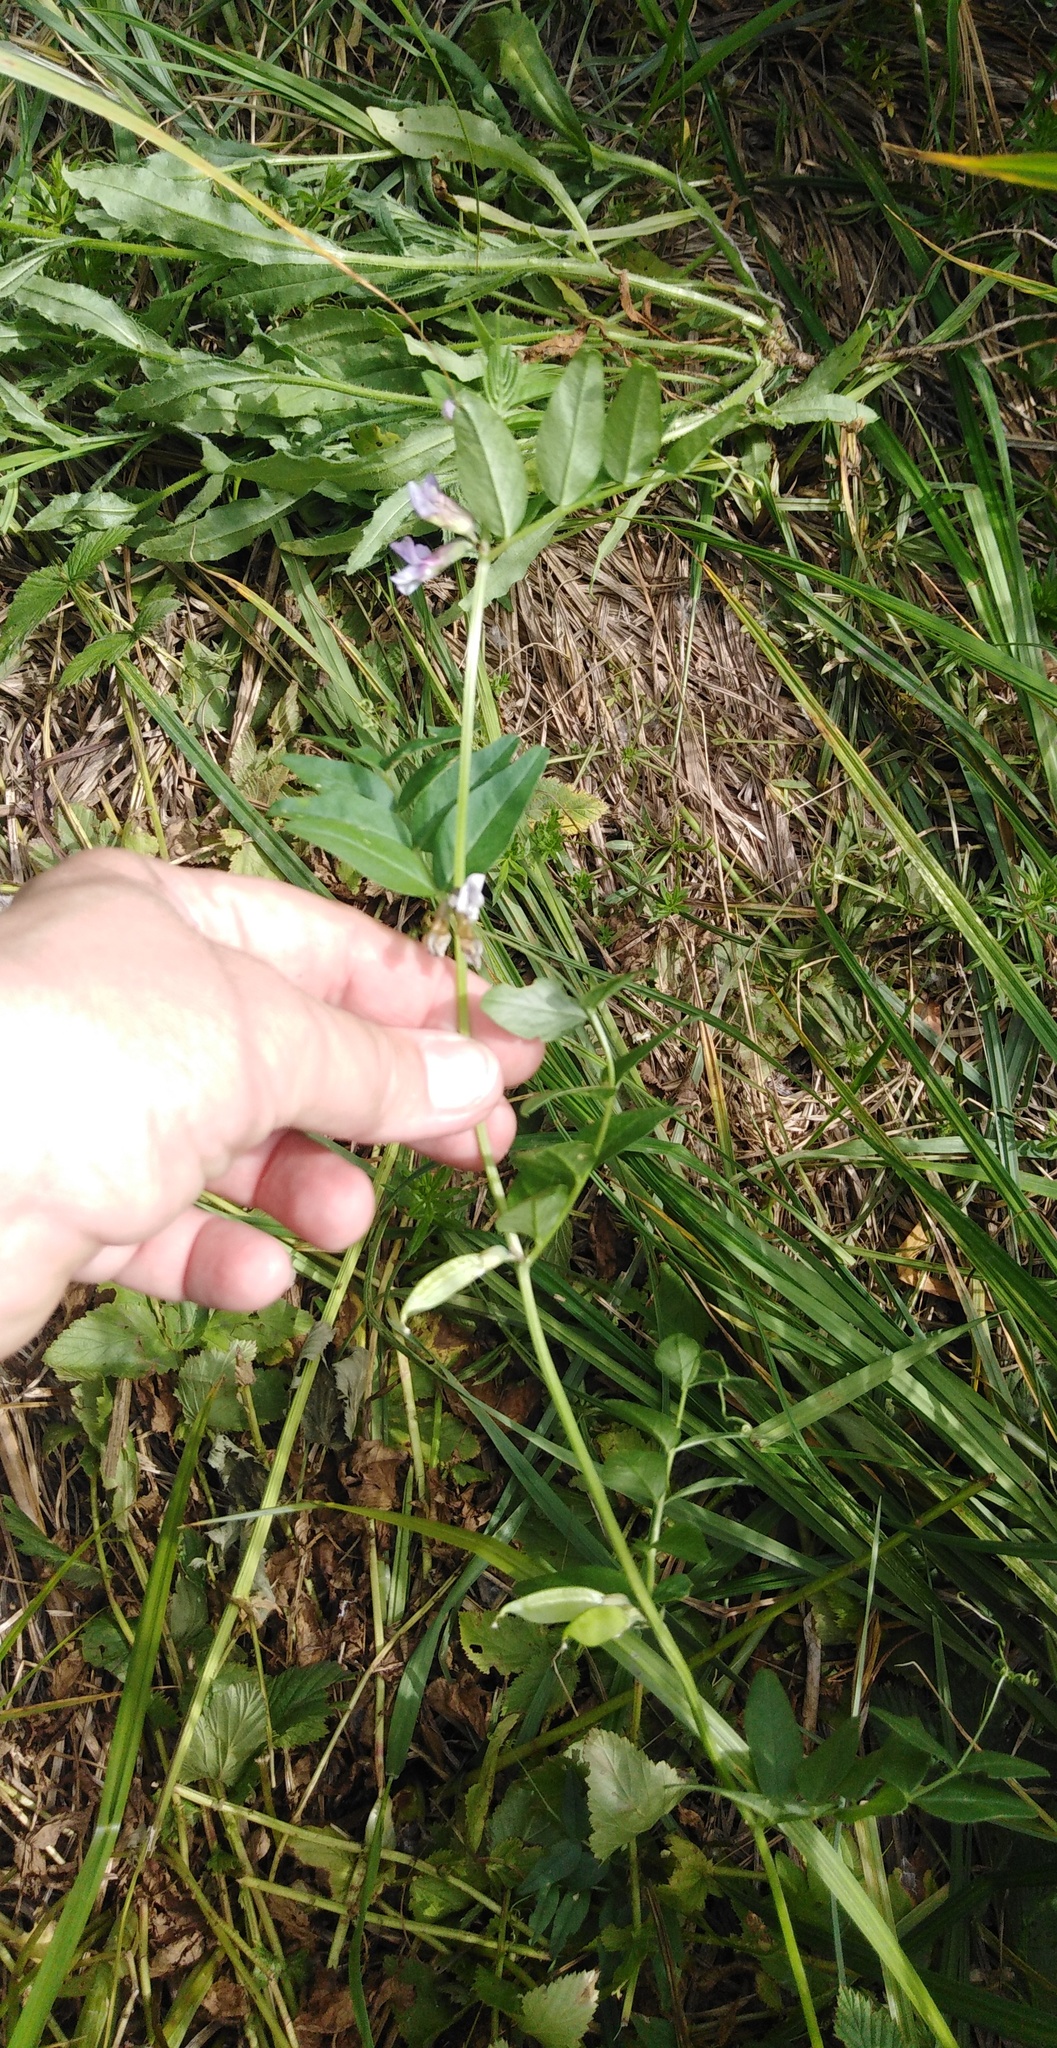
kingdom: Plantae
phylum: Tracheophyta
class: Magnoliopsida
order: Fabales
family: Fabaceae
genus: Vicia
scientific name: Vicia sepium
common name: Bush vetch
